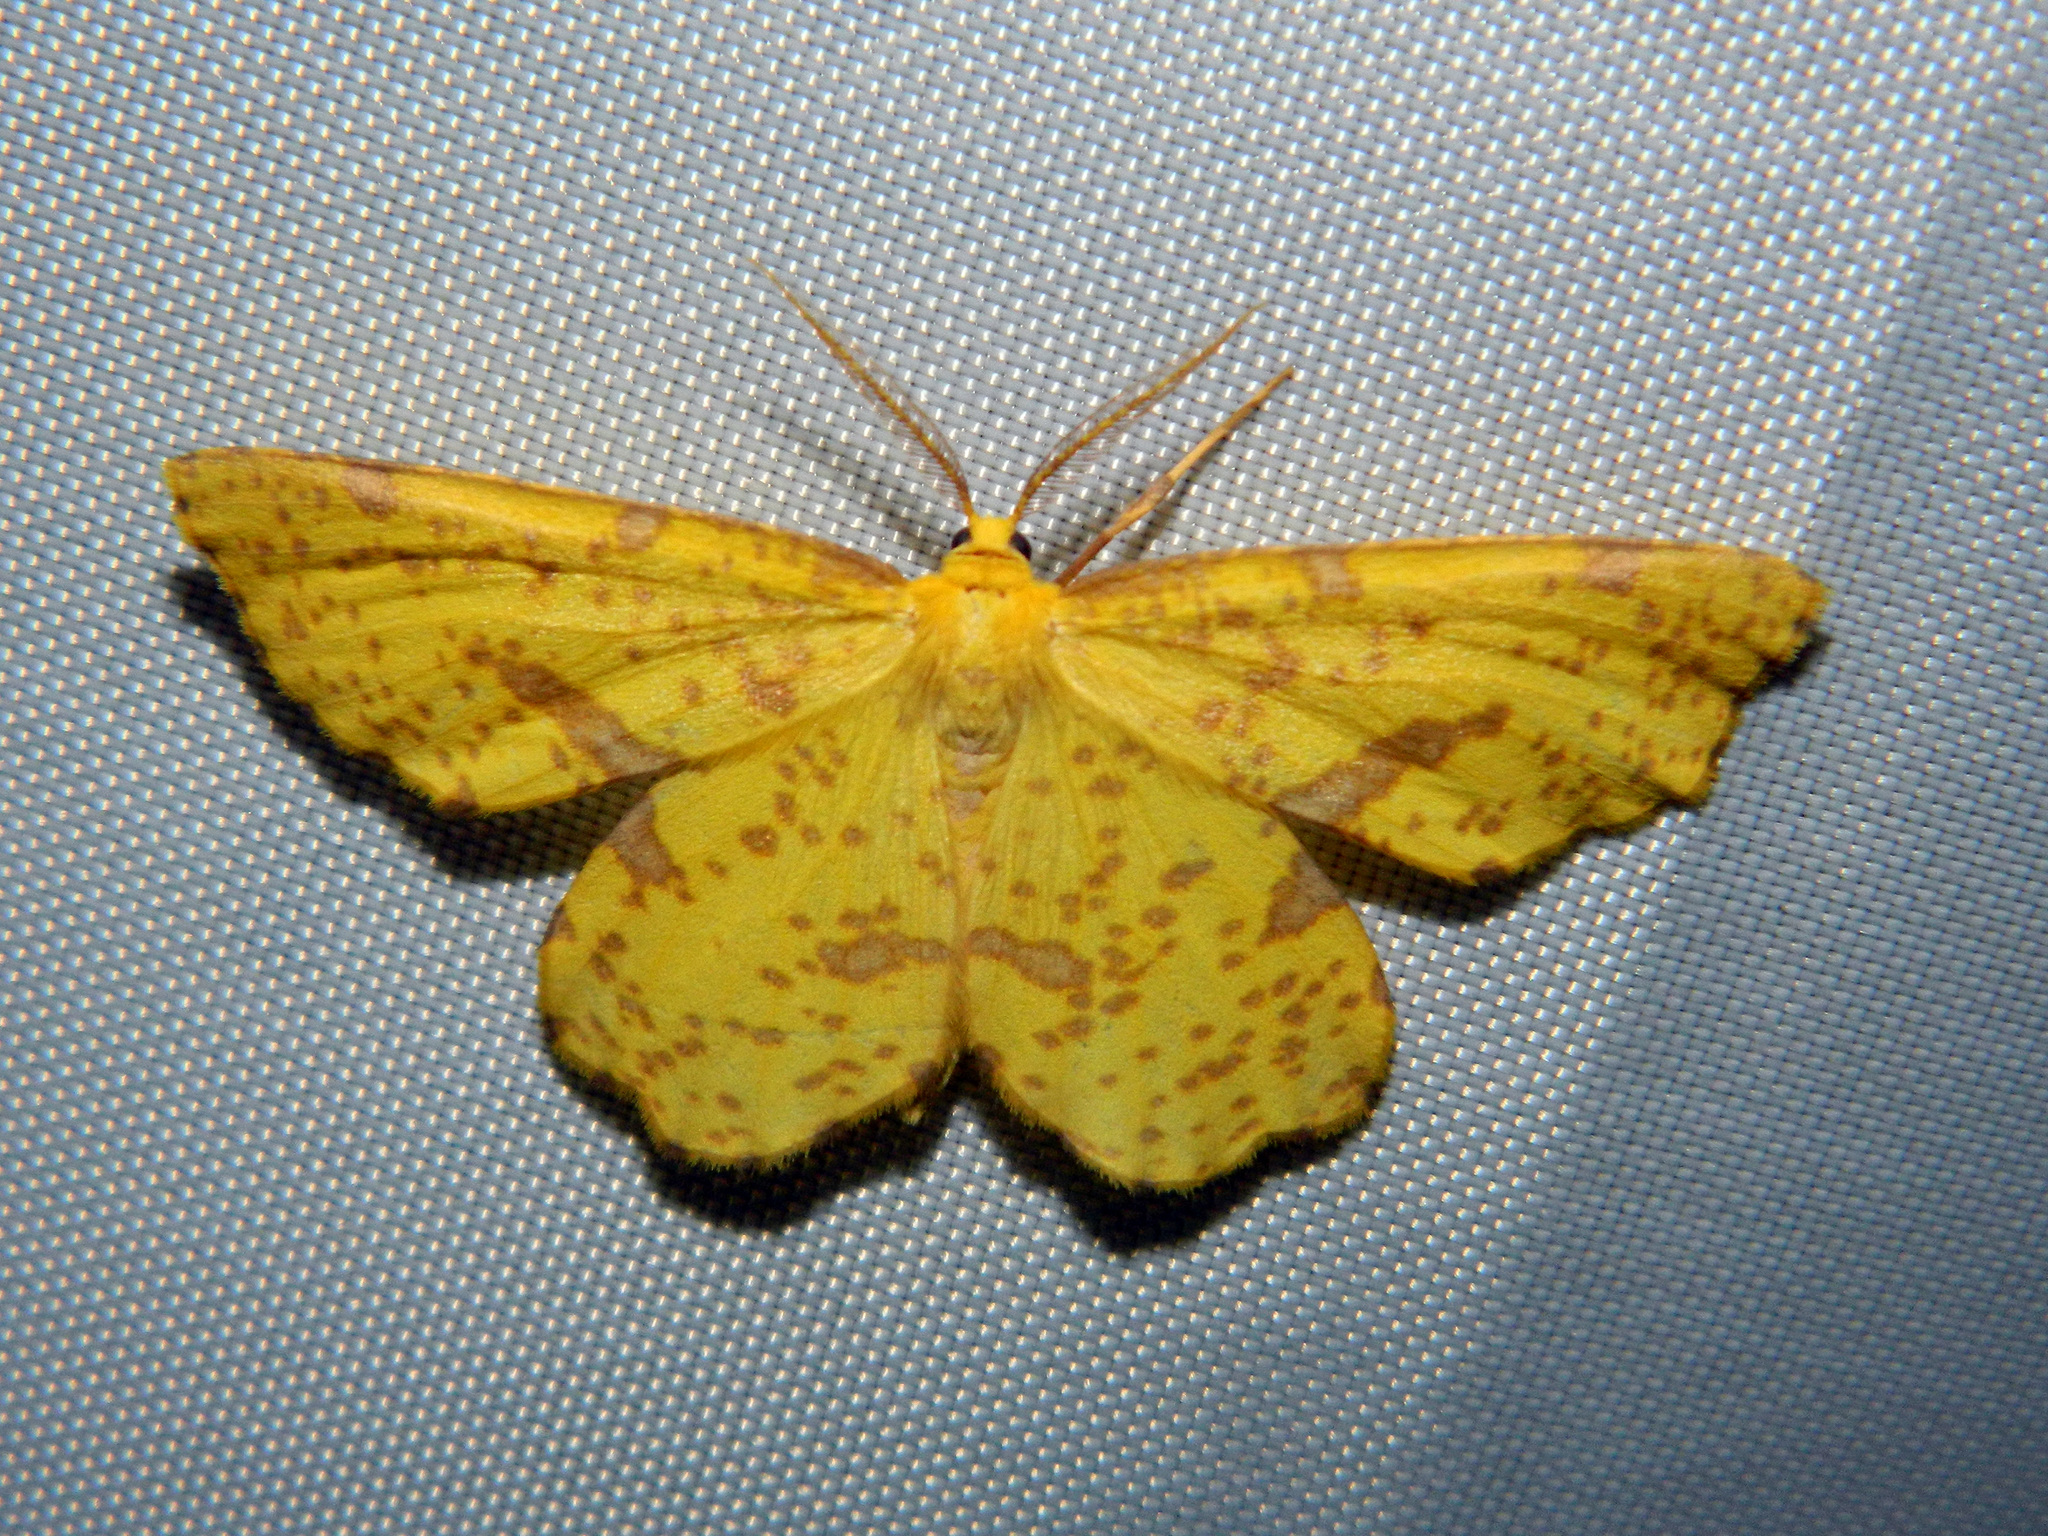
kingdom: Animalia
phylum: Arthropoda
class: Insecta
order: Lepidoptera
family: Geometridae
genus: Xanthotype
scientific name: Xanthotype
